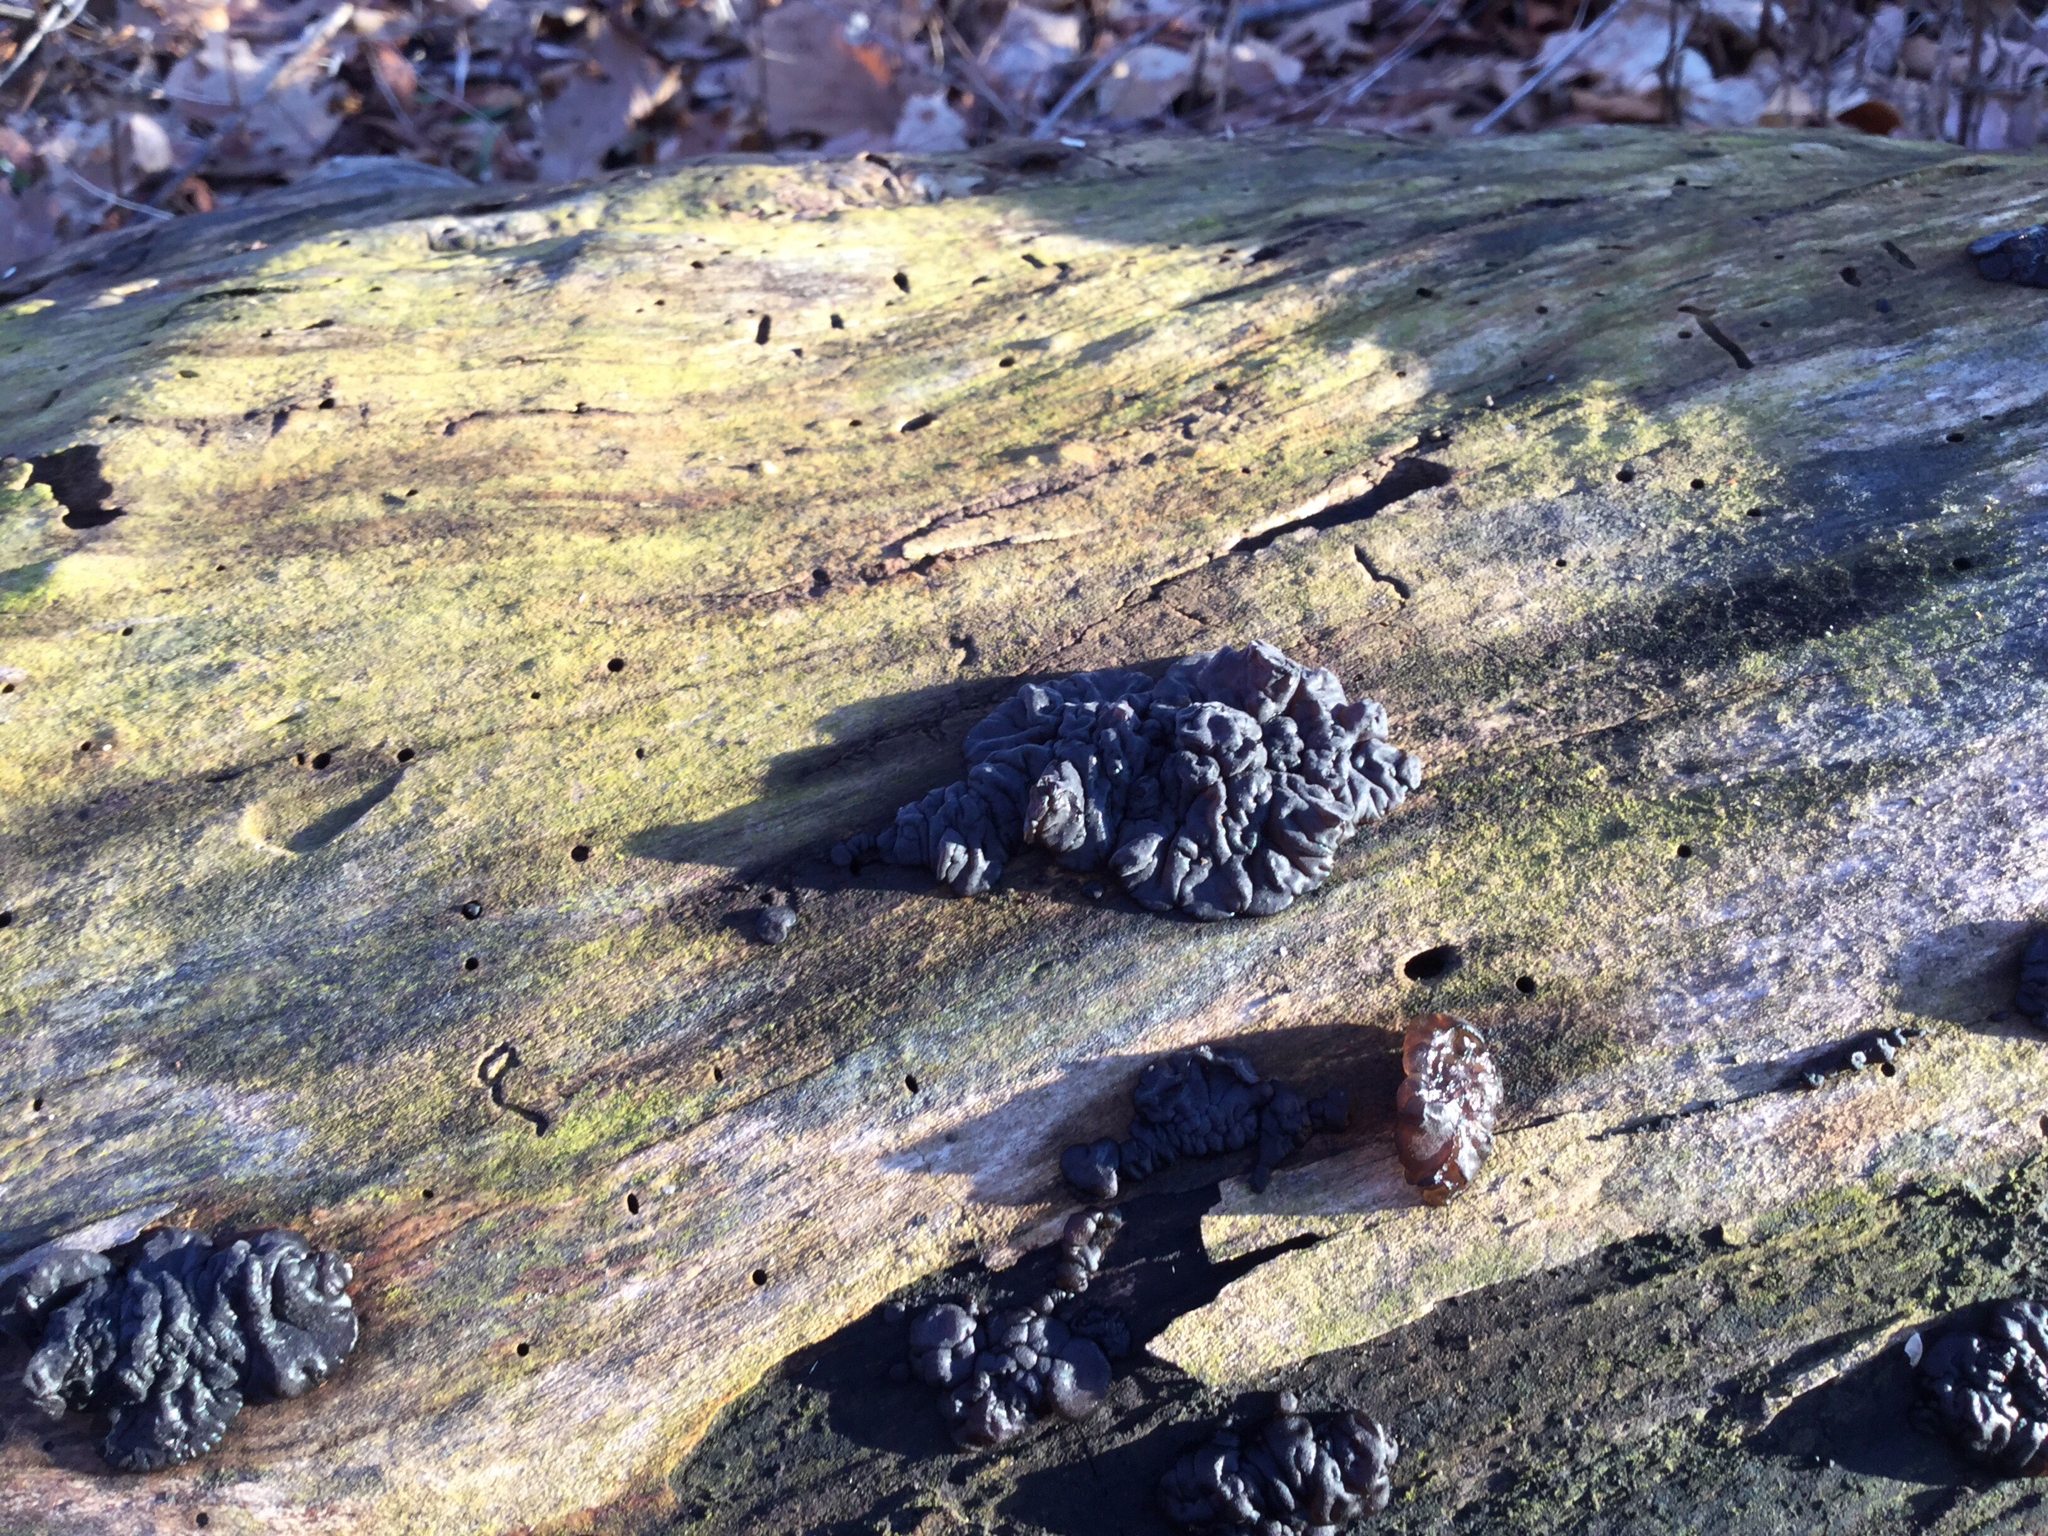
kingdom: Fungi
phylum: Basidiomycota
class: Agaricomycetes
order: Auriculariales
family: Auriculariaceae
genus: Exidia
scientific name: Exidia glandulosa
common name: Witches' butter
